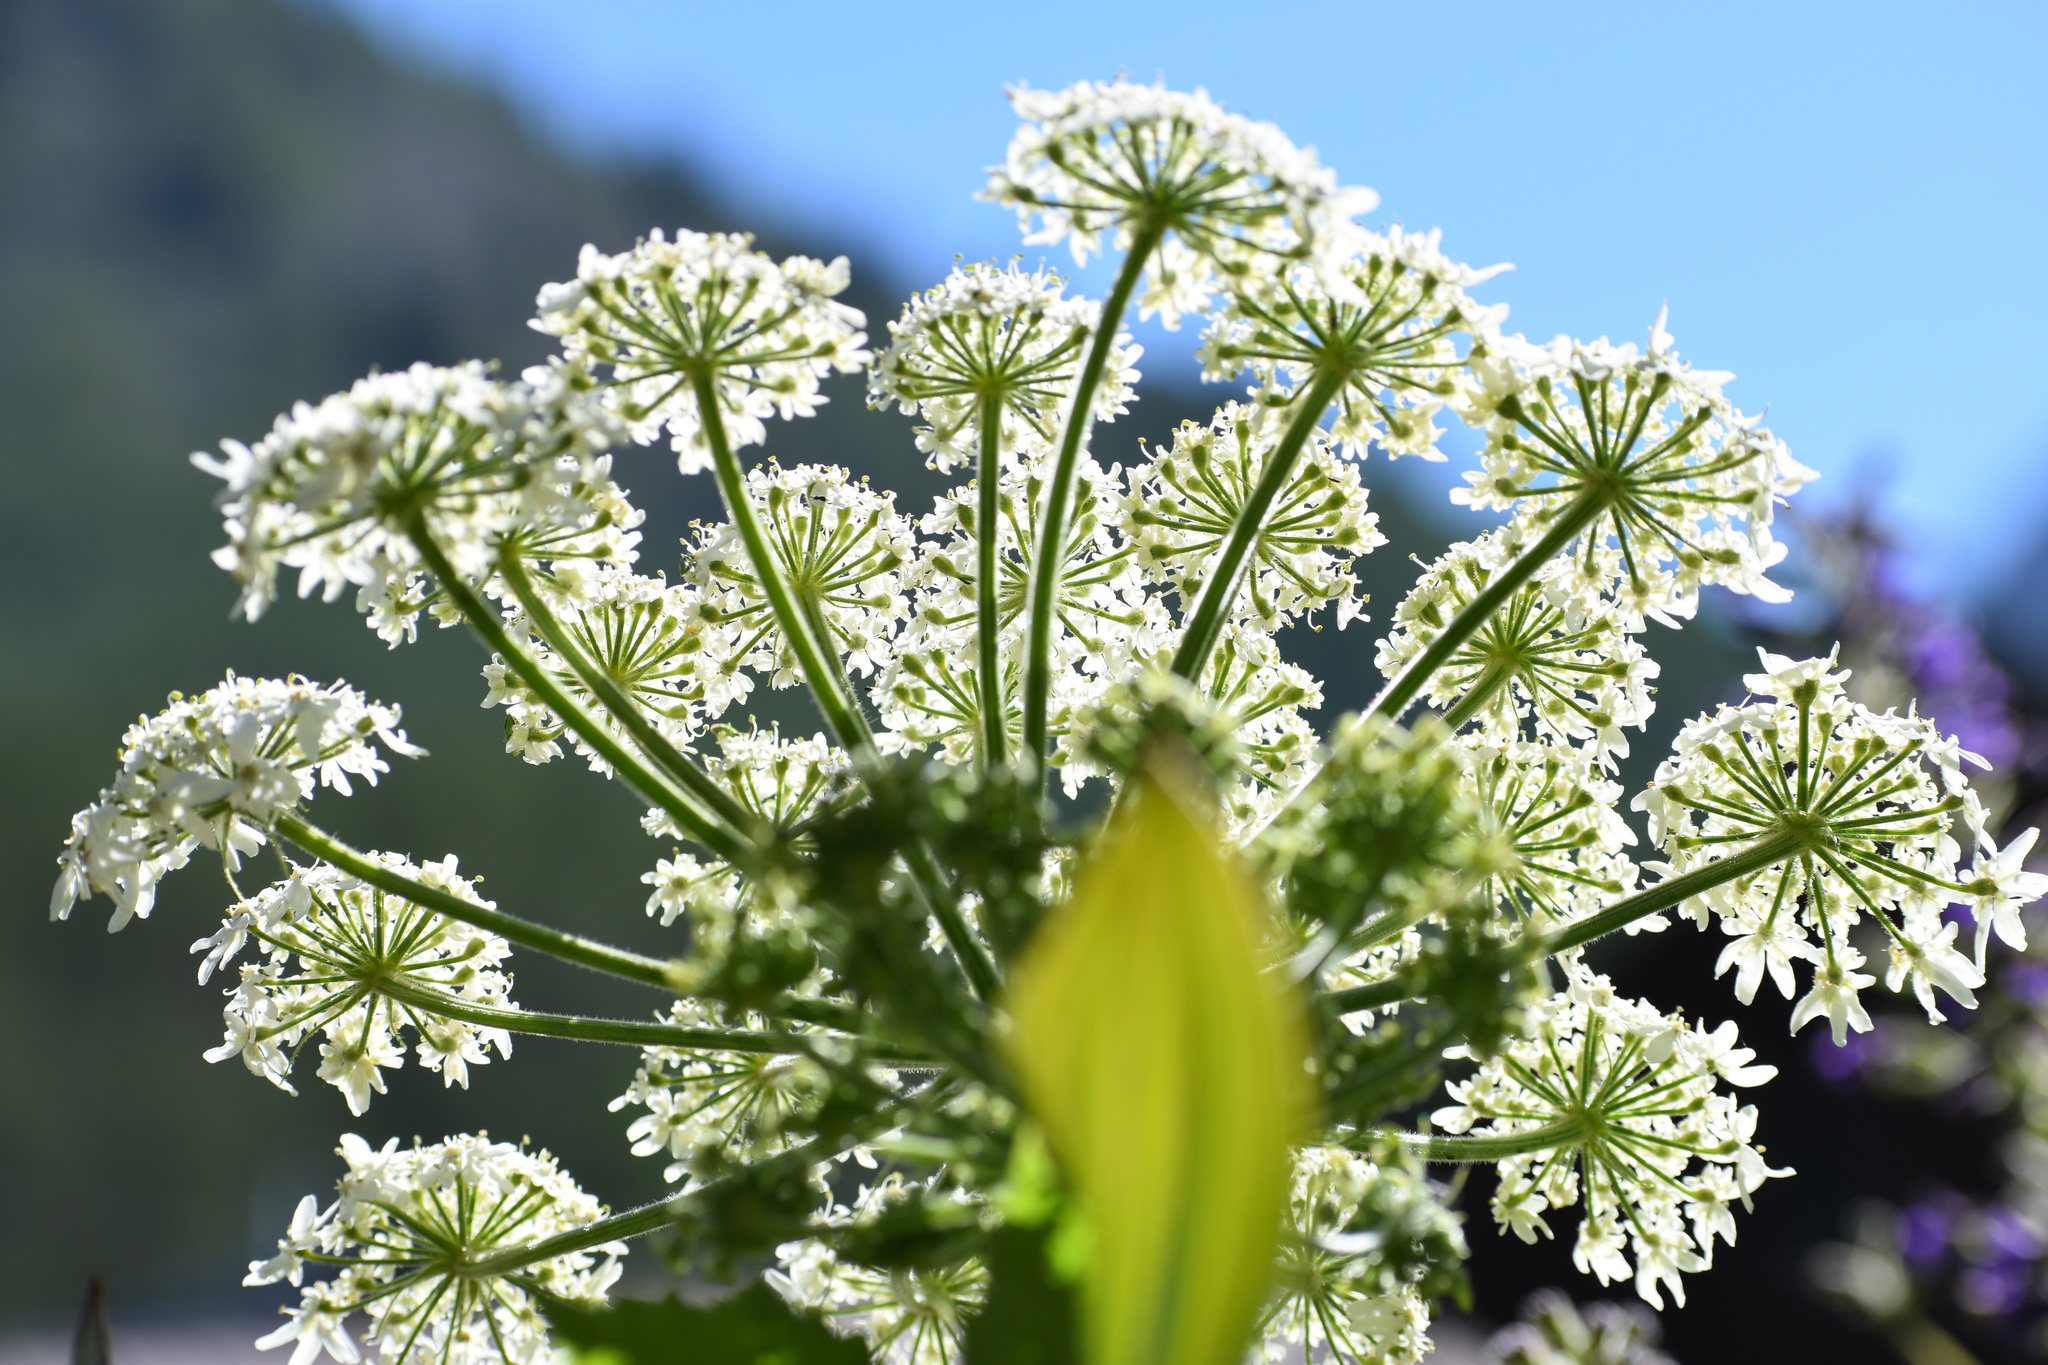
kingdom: Plantae
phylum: Tracheophyta
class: Magnoliopsida
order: Apiales
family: Apiaceae
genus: Heracleum
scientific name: Heracleum maximum
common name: American cow parsnip
